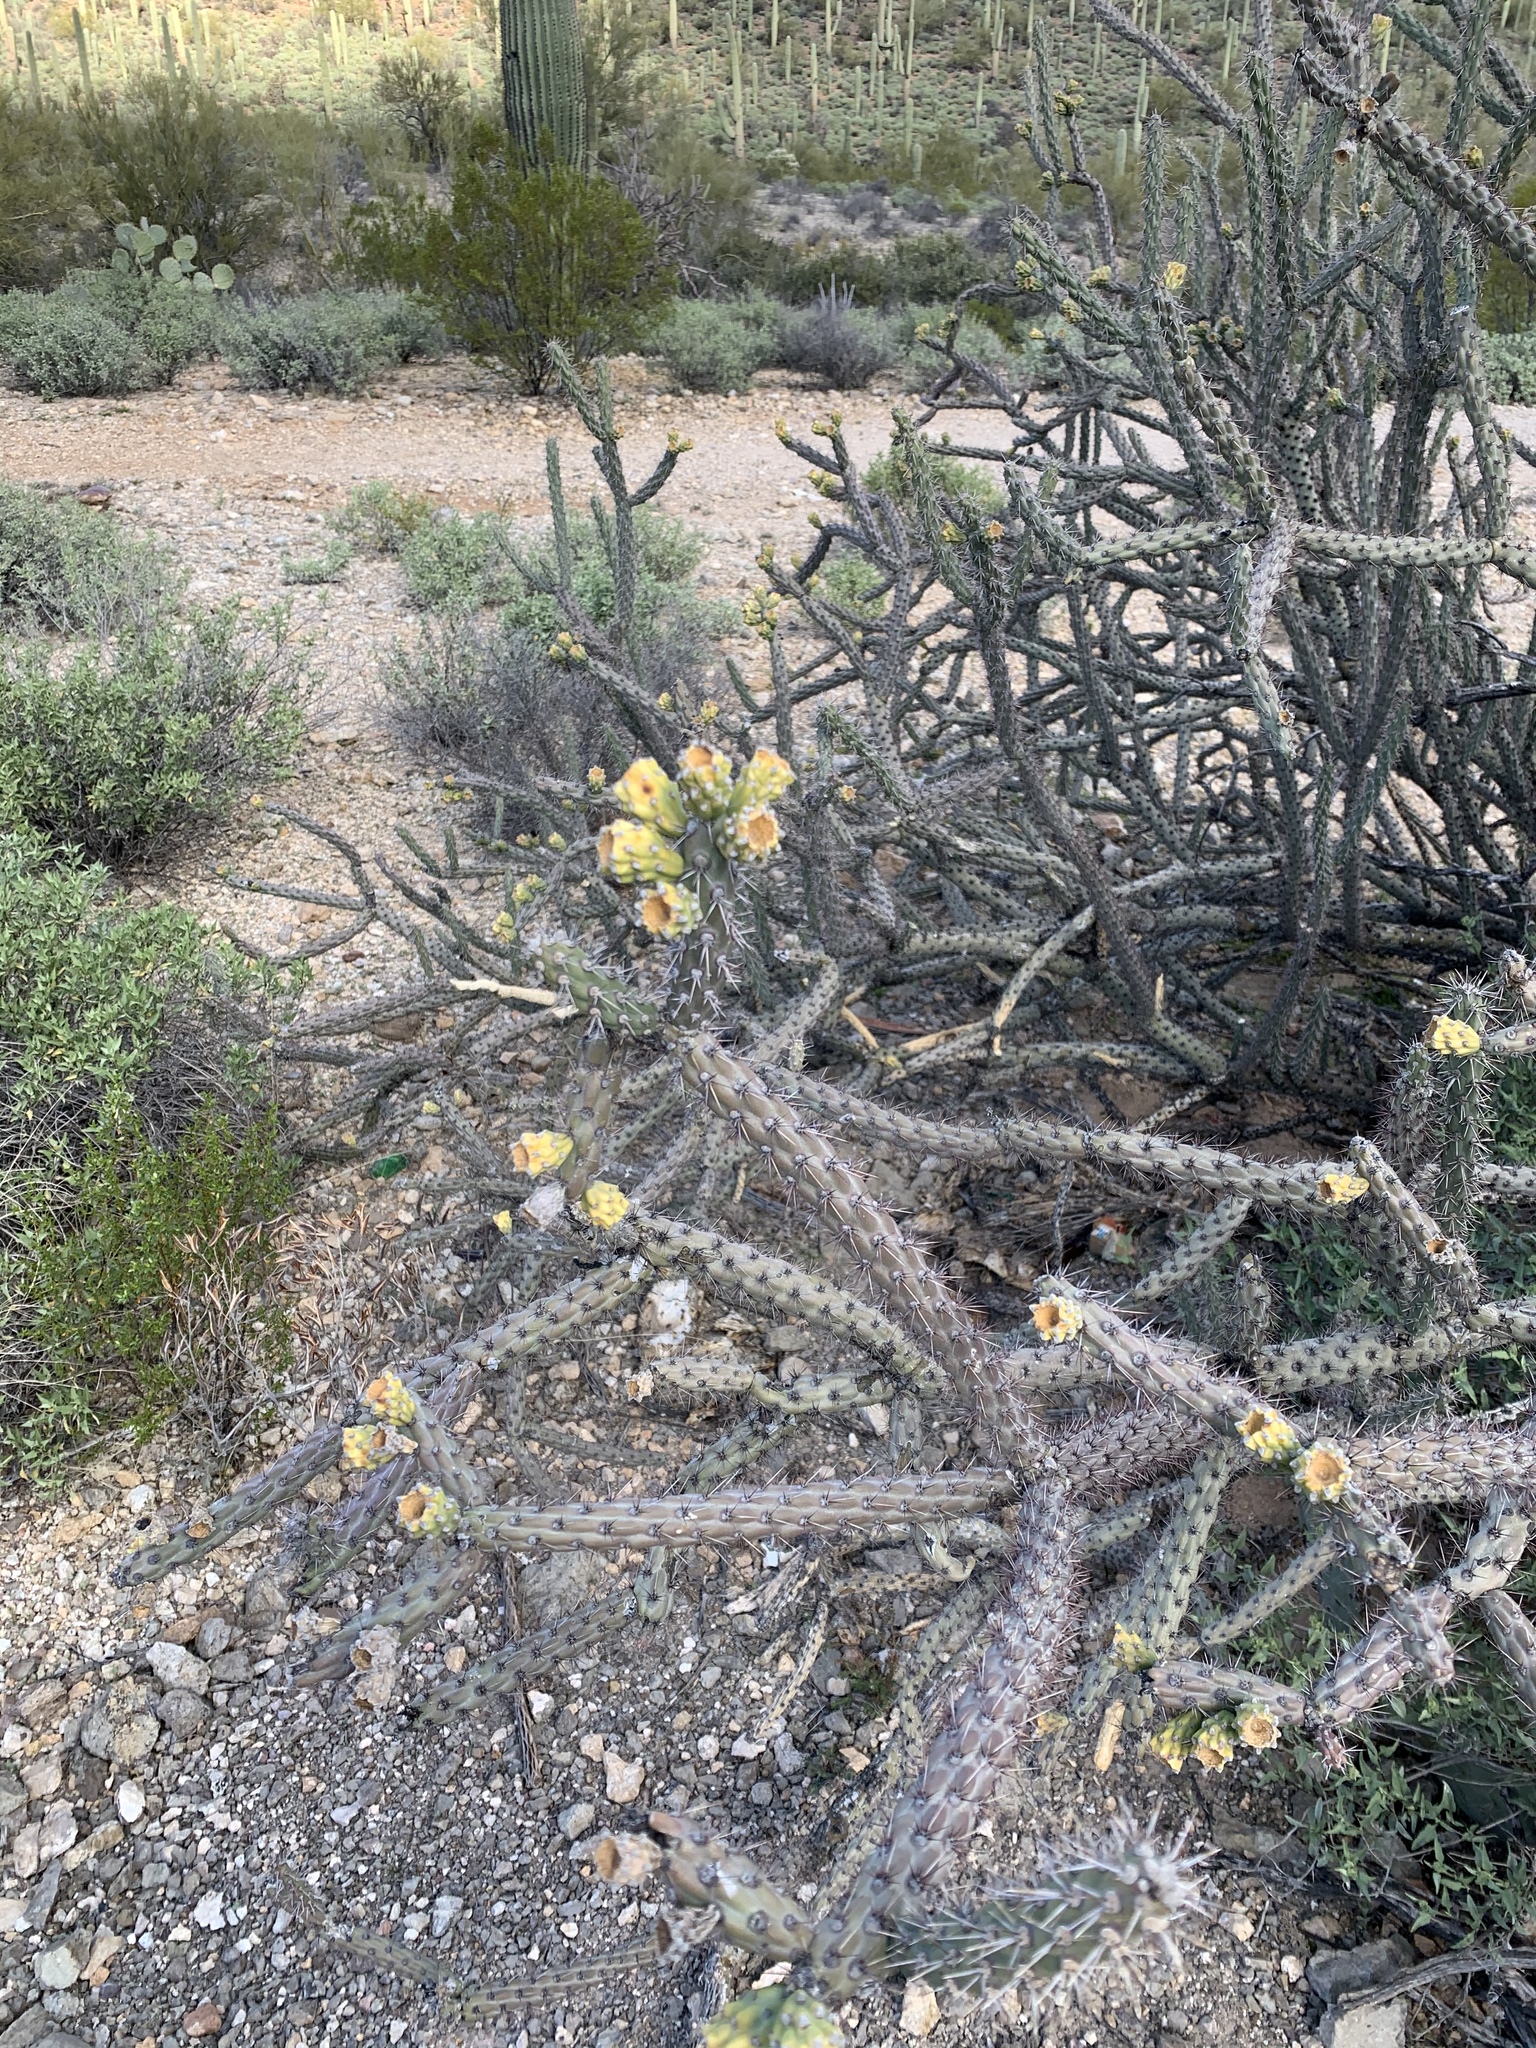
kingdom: Plantae
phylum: Tracheophyta
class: Magnoliopsida
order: Caryophyllales
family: Cactaceae
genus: Cylindropuntia
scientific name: Cylindropuntia thurberi
